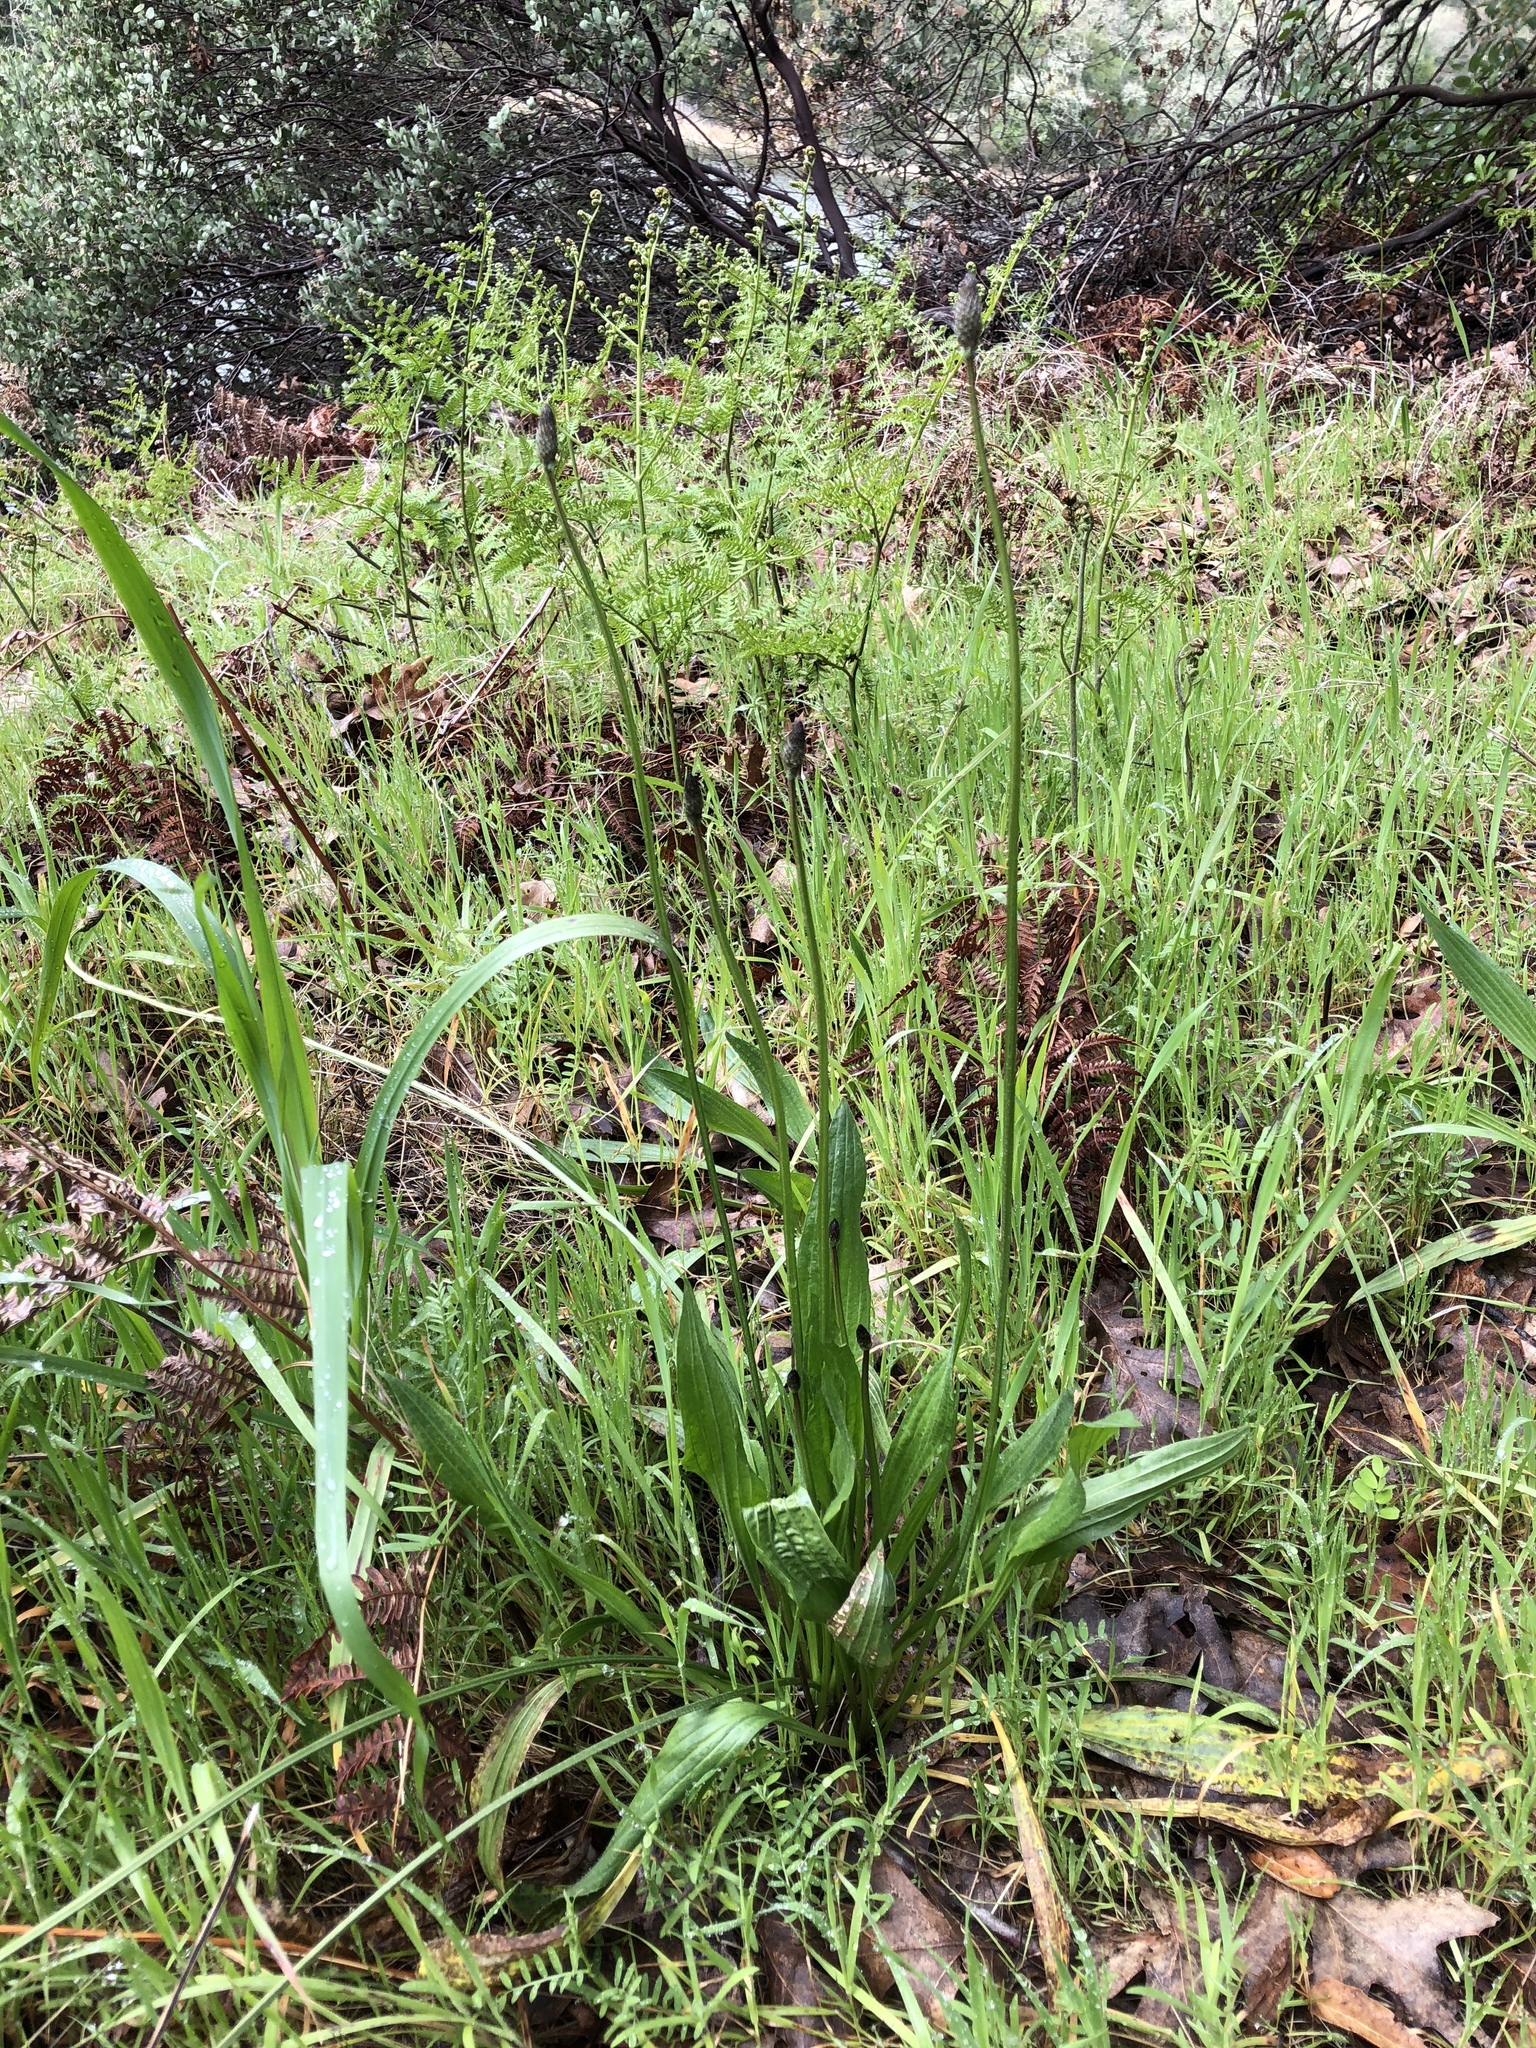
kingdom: Plantae
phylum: Tracheophyta
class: Magnoliopsida
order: Lamiales
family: Plantaginaceae
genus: Plantago
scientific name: Plantago lanceolata
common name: Ribwort plantain
